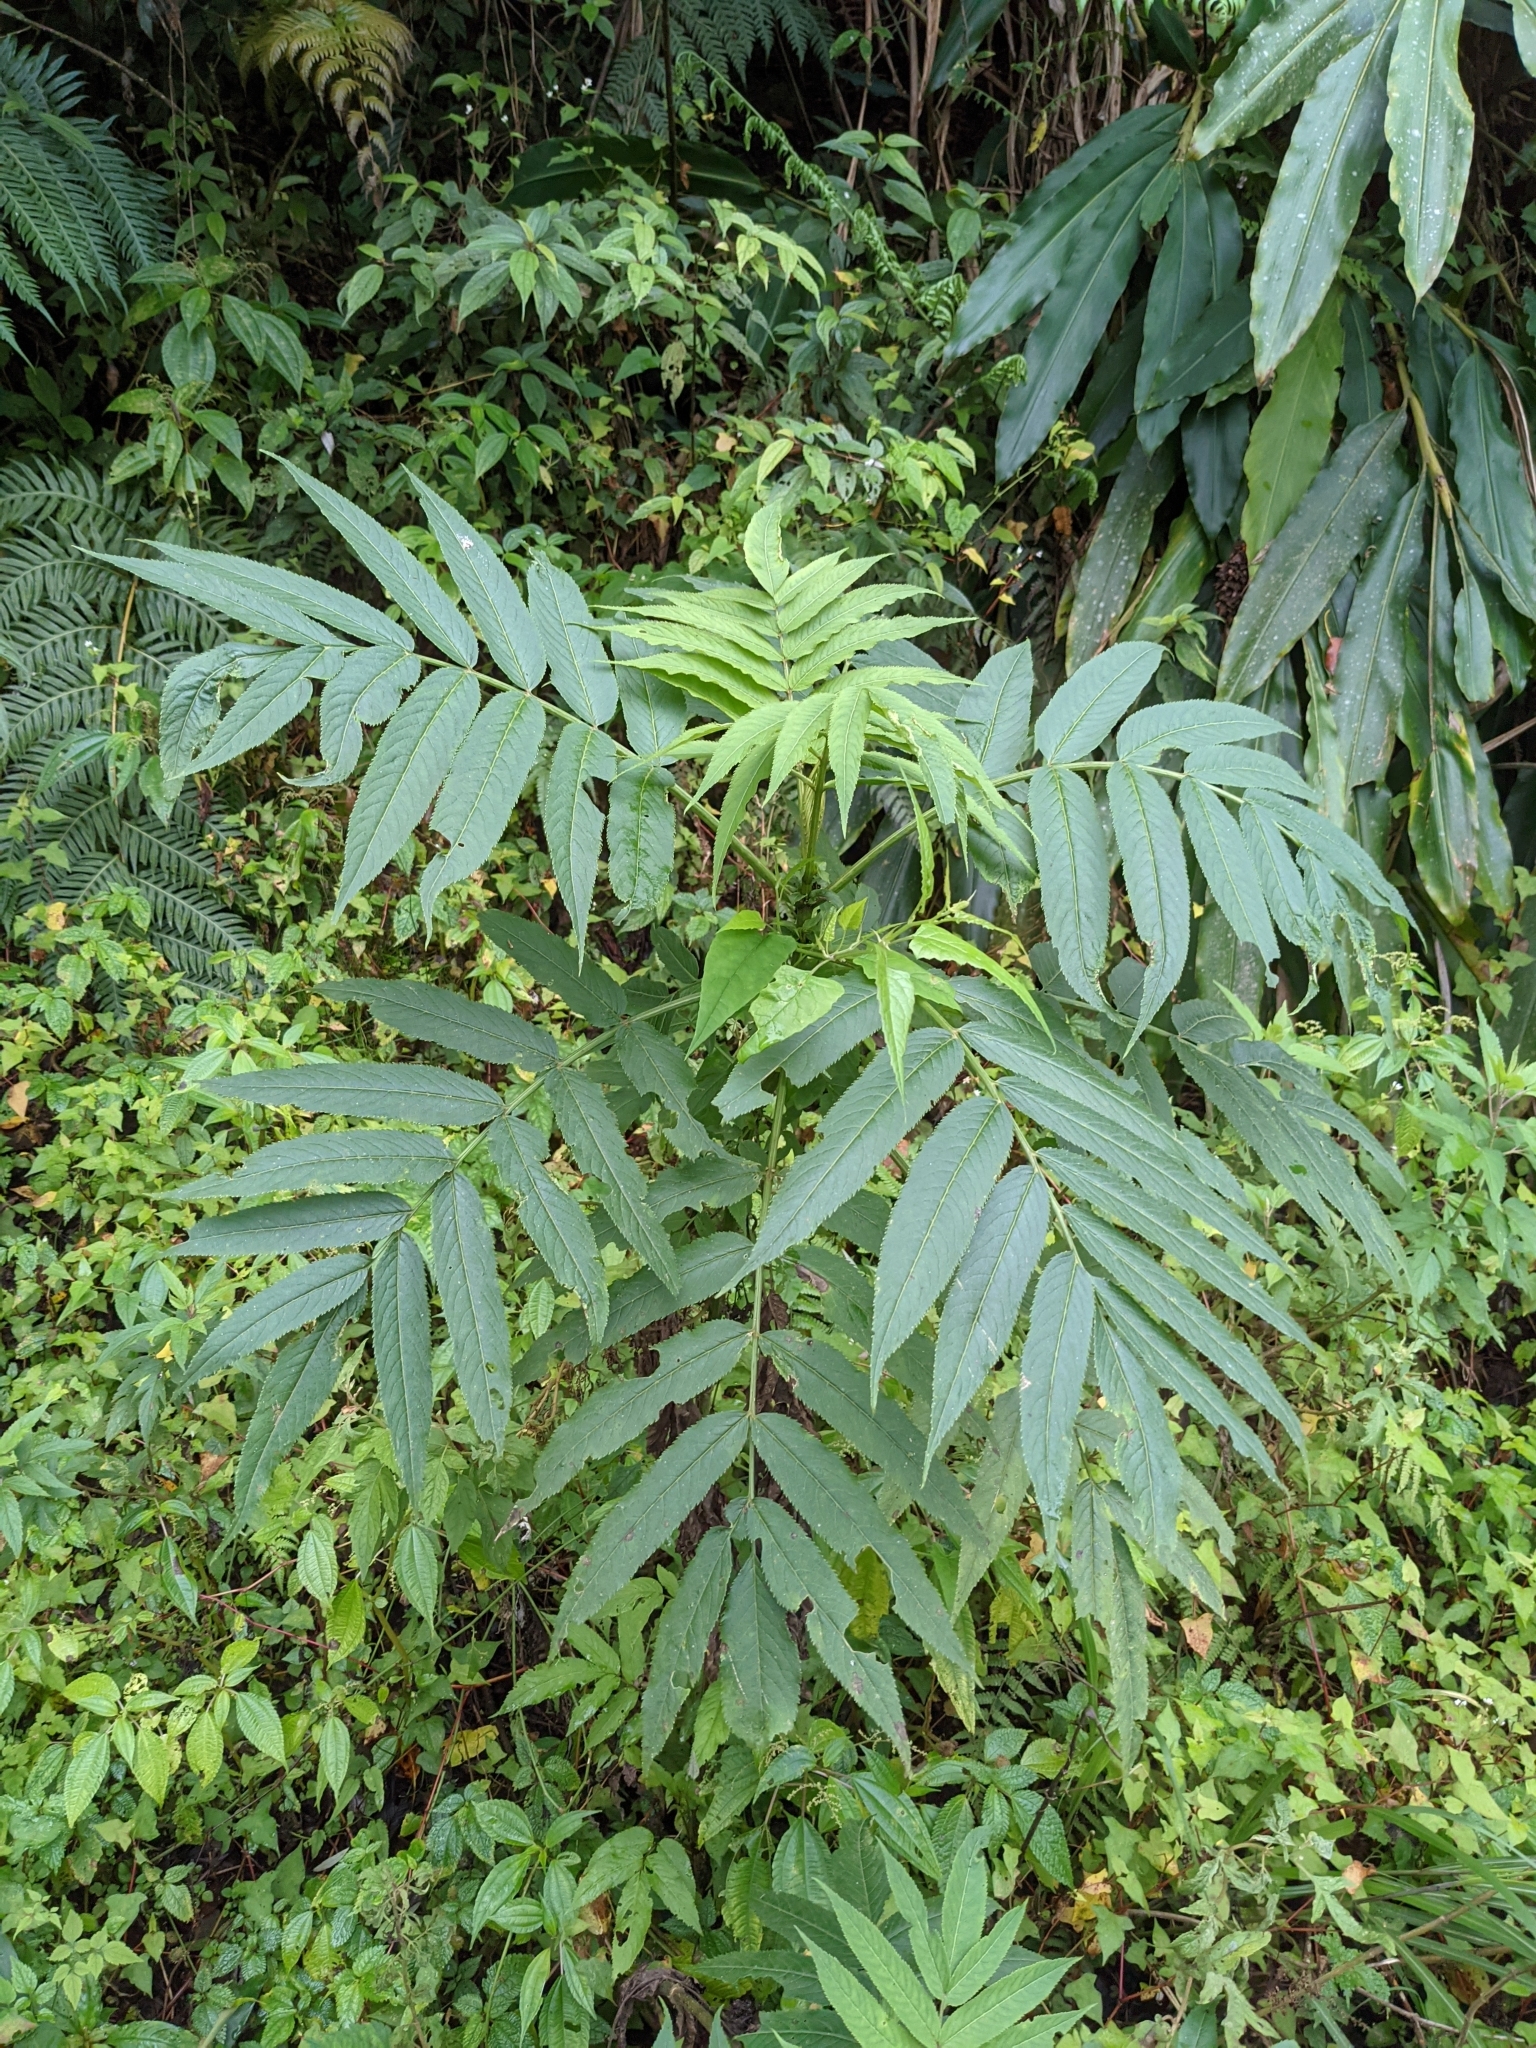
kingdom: Plantae
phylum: Tracheophyta
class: Magnoliopsida
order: Dipsacales
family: Viburnaceae
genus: Sambucus
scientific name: Sambucus javanica
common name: Chinese elder
